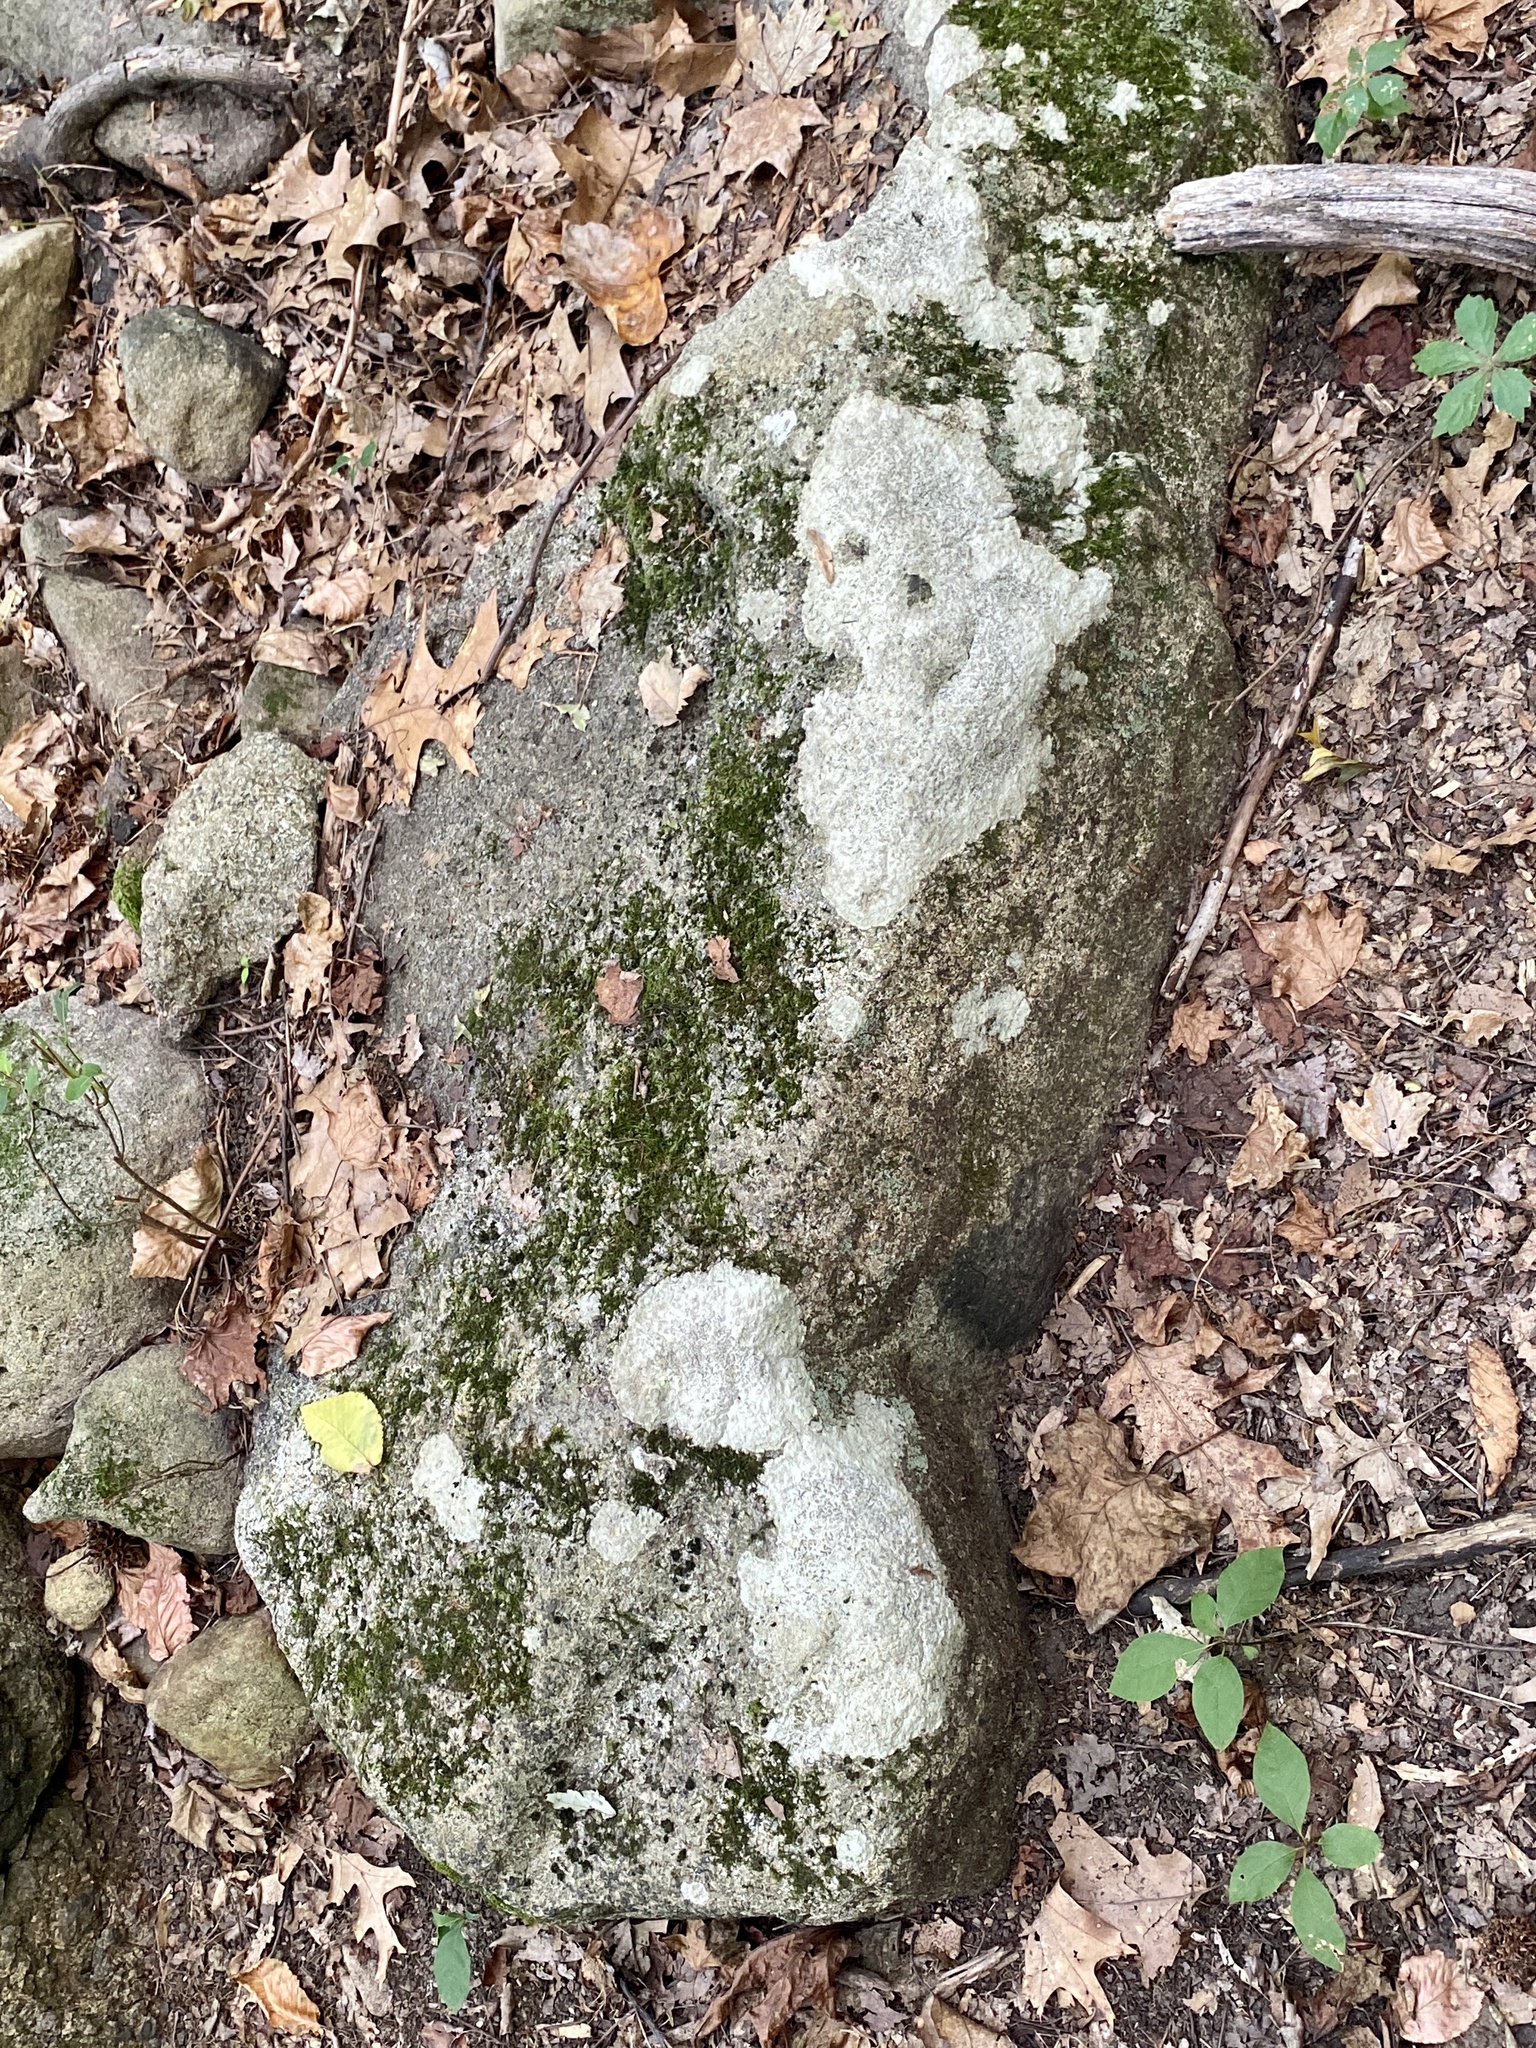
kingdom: Fungi
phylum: Ascomycota
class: Lecanoromycetes
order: Lecideales
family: Lecideaceae
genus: Porpidia
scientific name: Porpidia albocaerulescens
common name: Smokey-eyed boulder lichen
